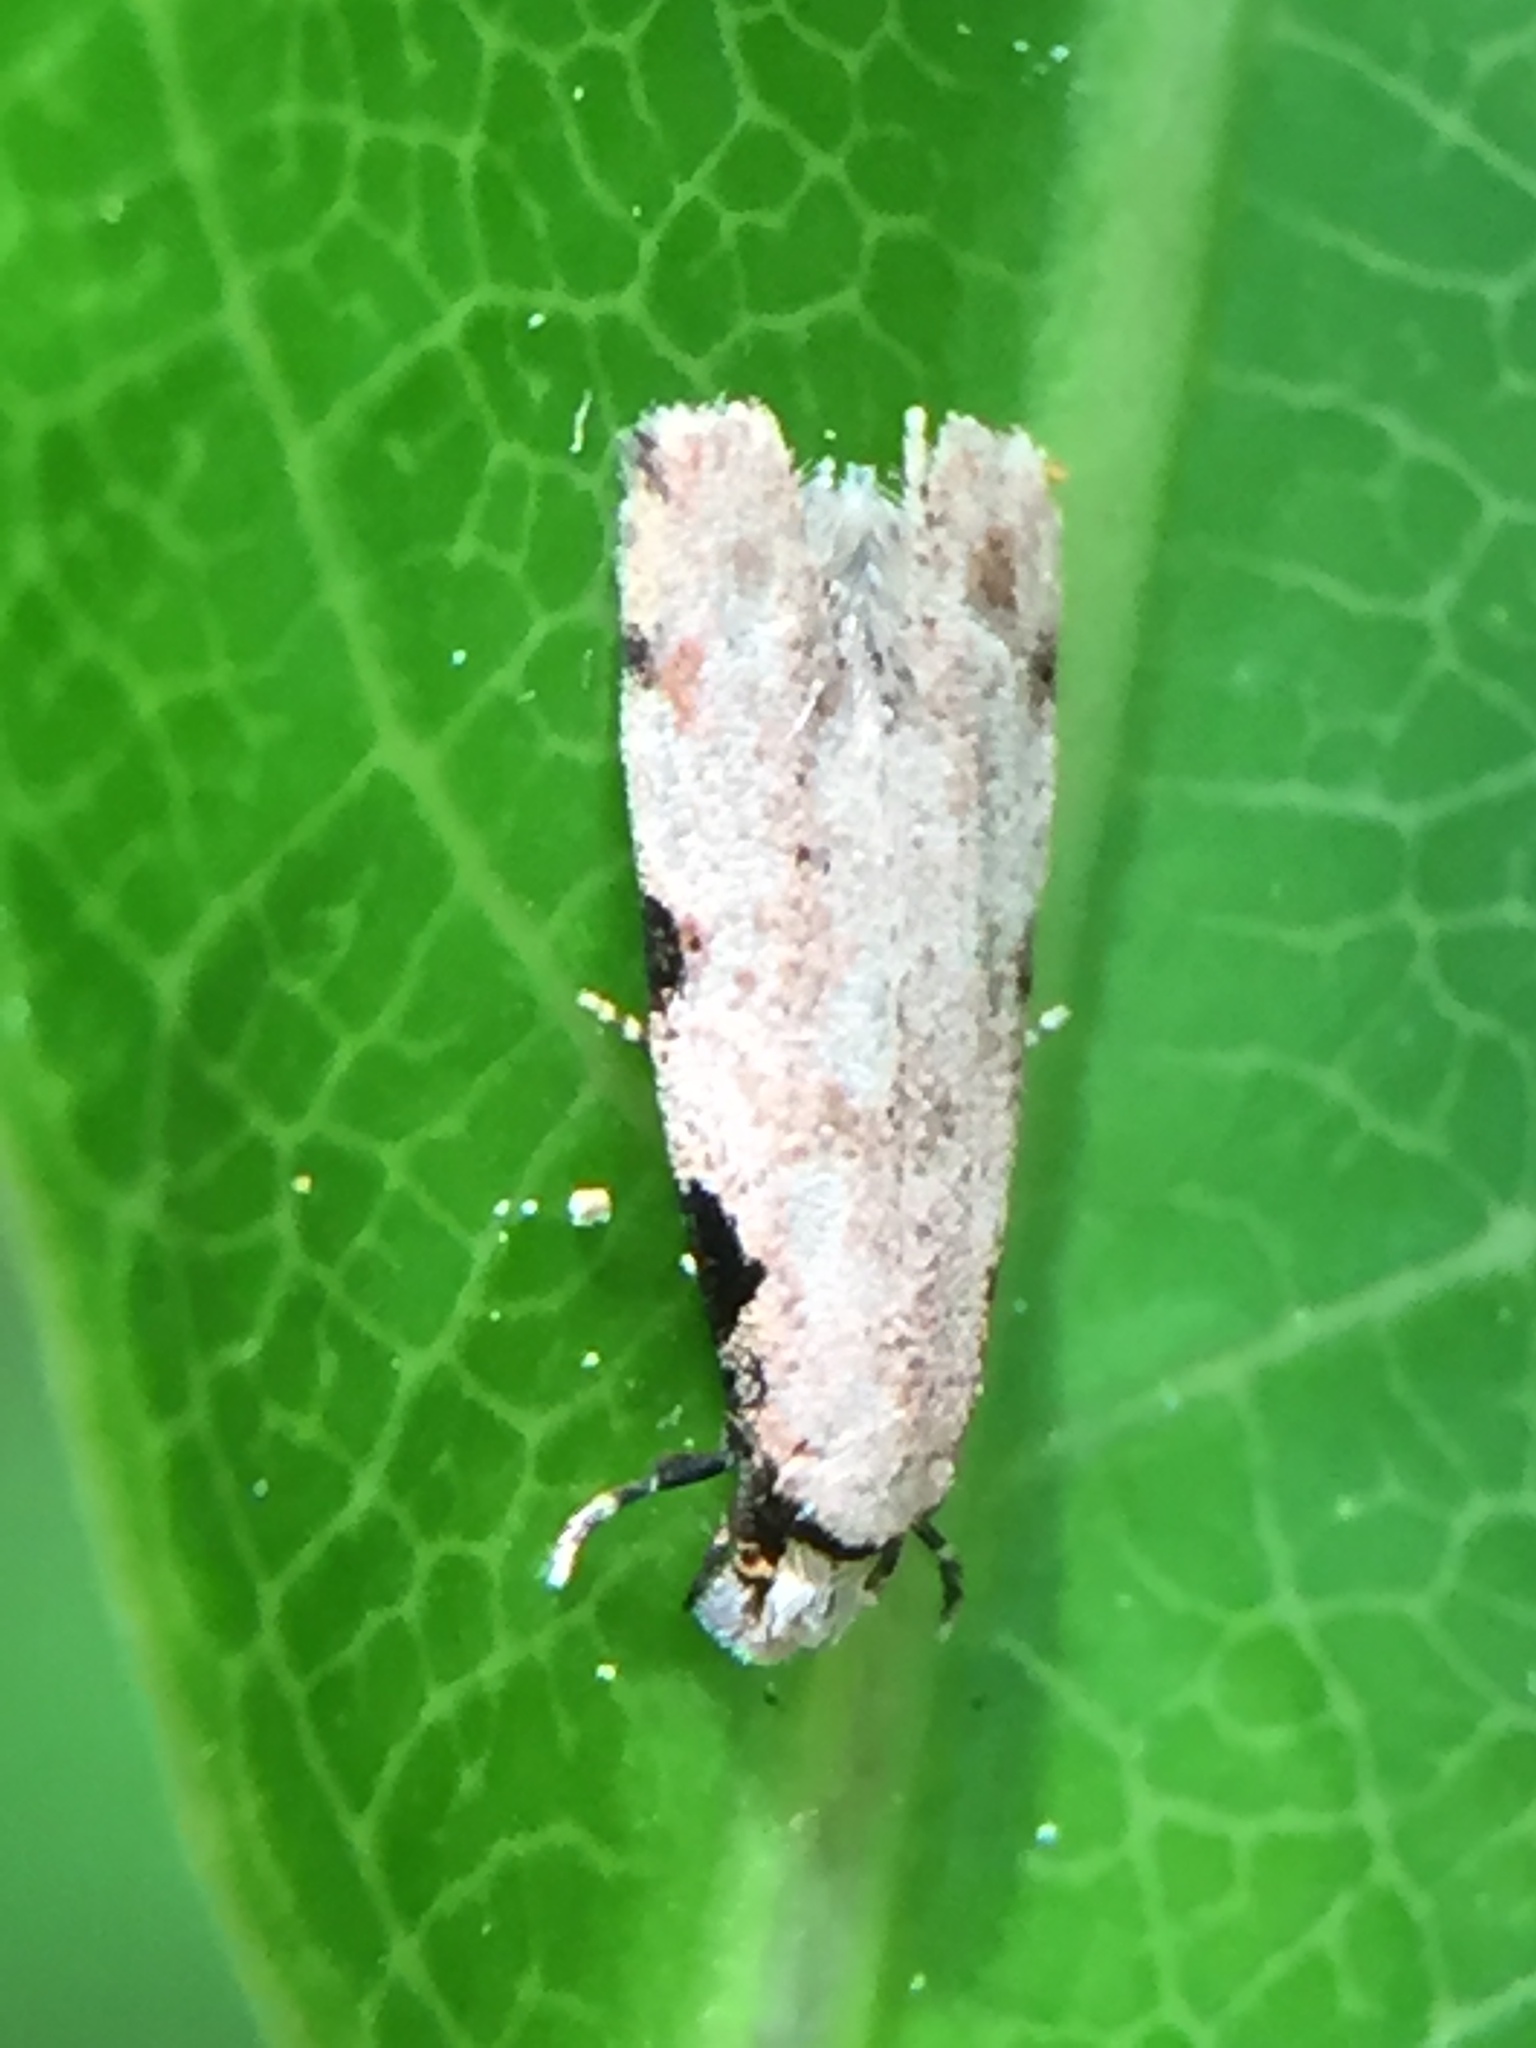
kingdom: Animalia
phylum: Arthropoda
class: Insecta
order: Lepidoptera
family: Tineidae
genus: Endophthora
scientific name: Endophthora omogramma
